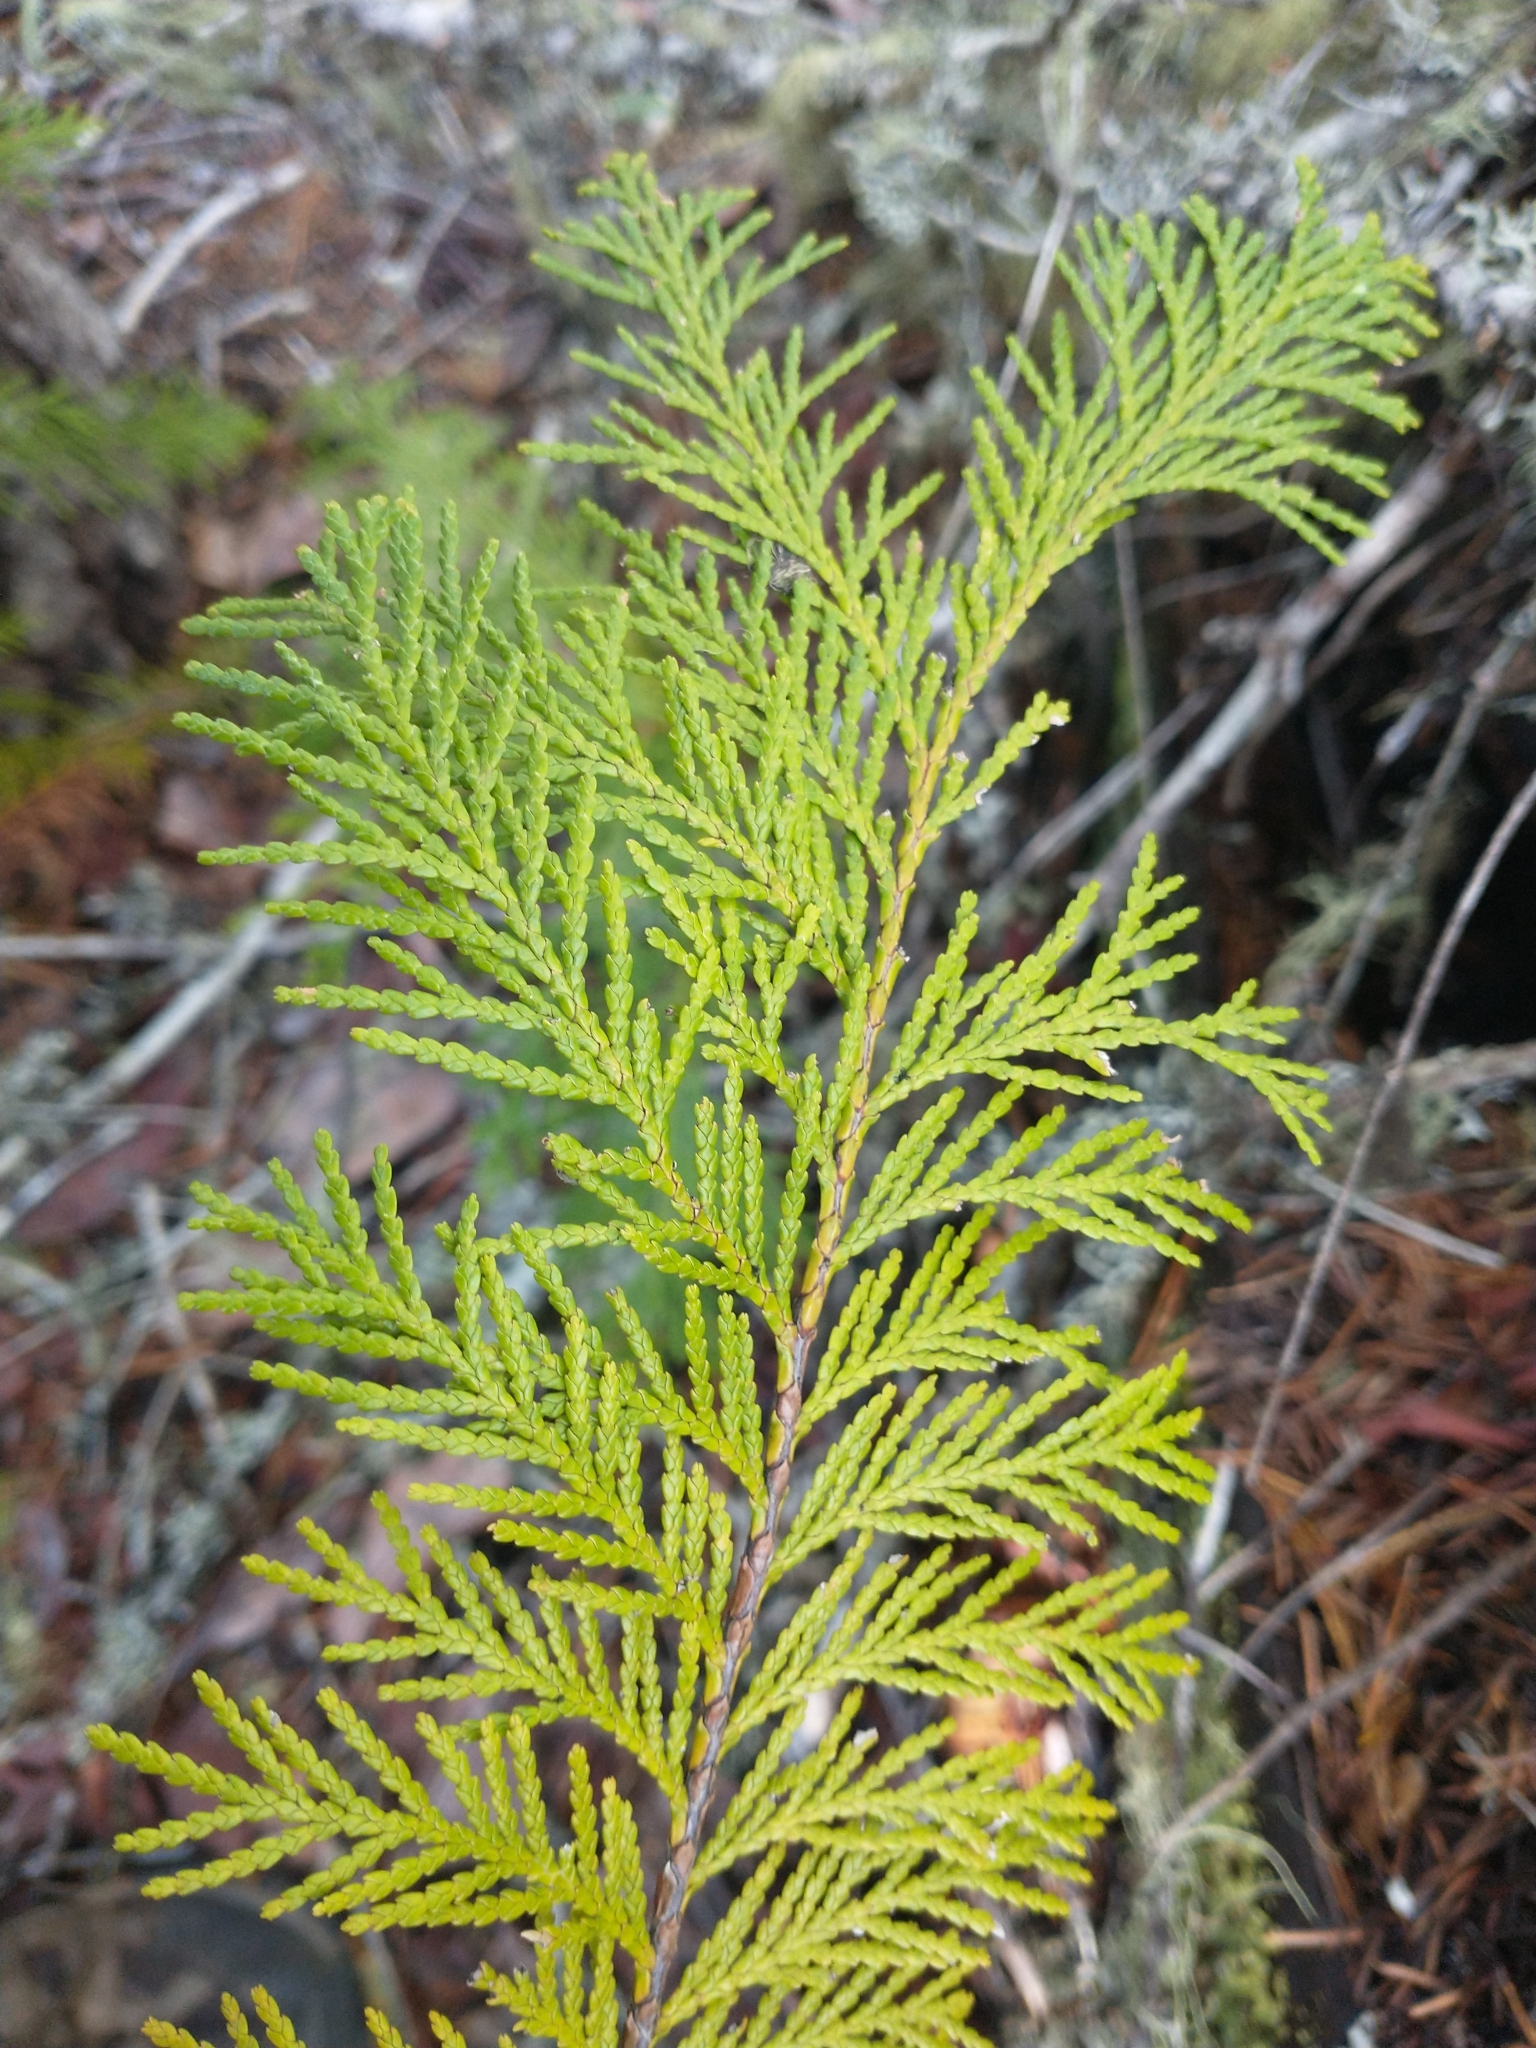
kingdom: Plantae
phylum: Tracheophyta
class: Pinopsida
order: Pinales
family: Cupressaceae
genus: Chamaecyparis
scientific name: Chamaecyparis lawsoniana
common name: Lawson's cypress
